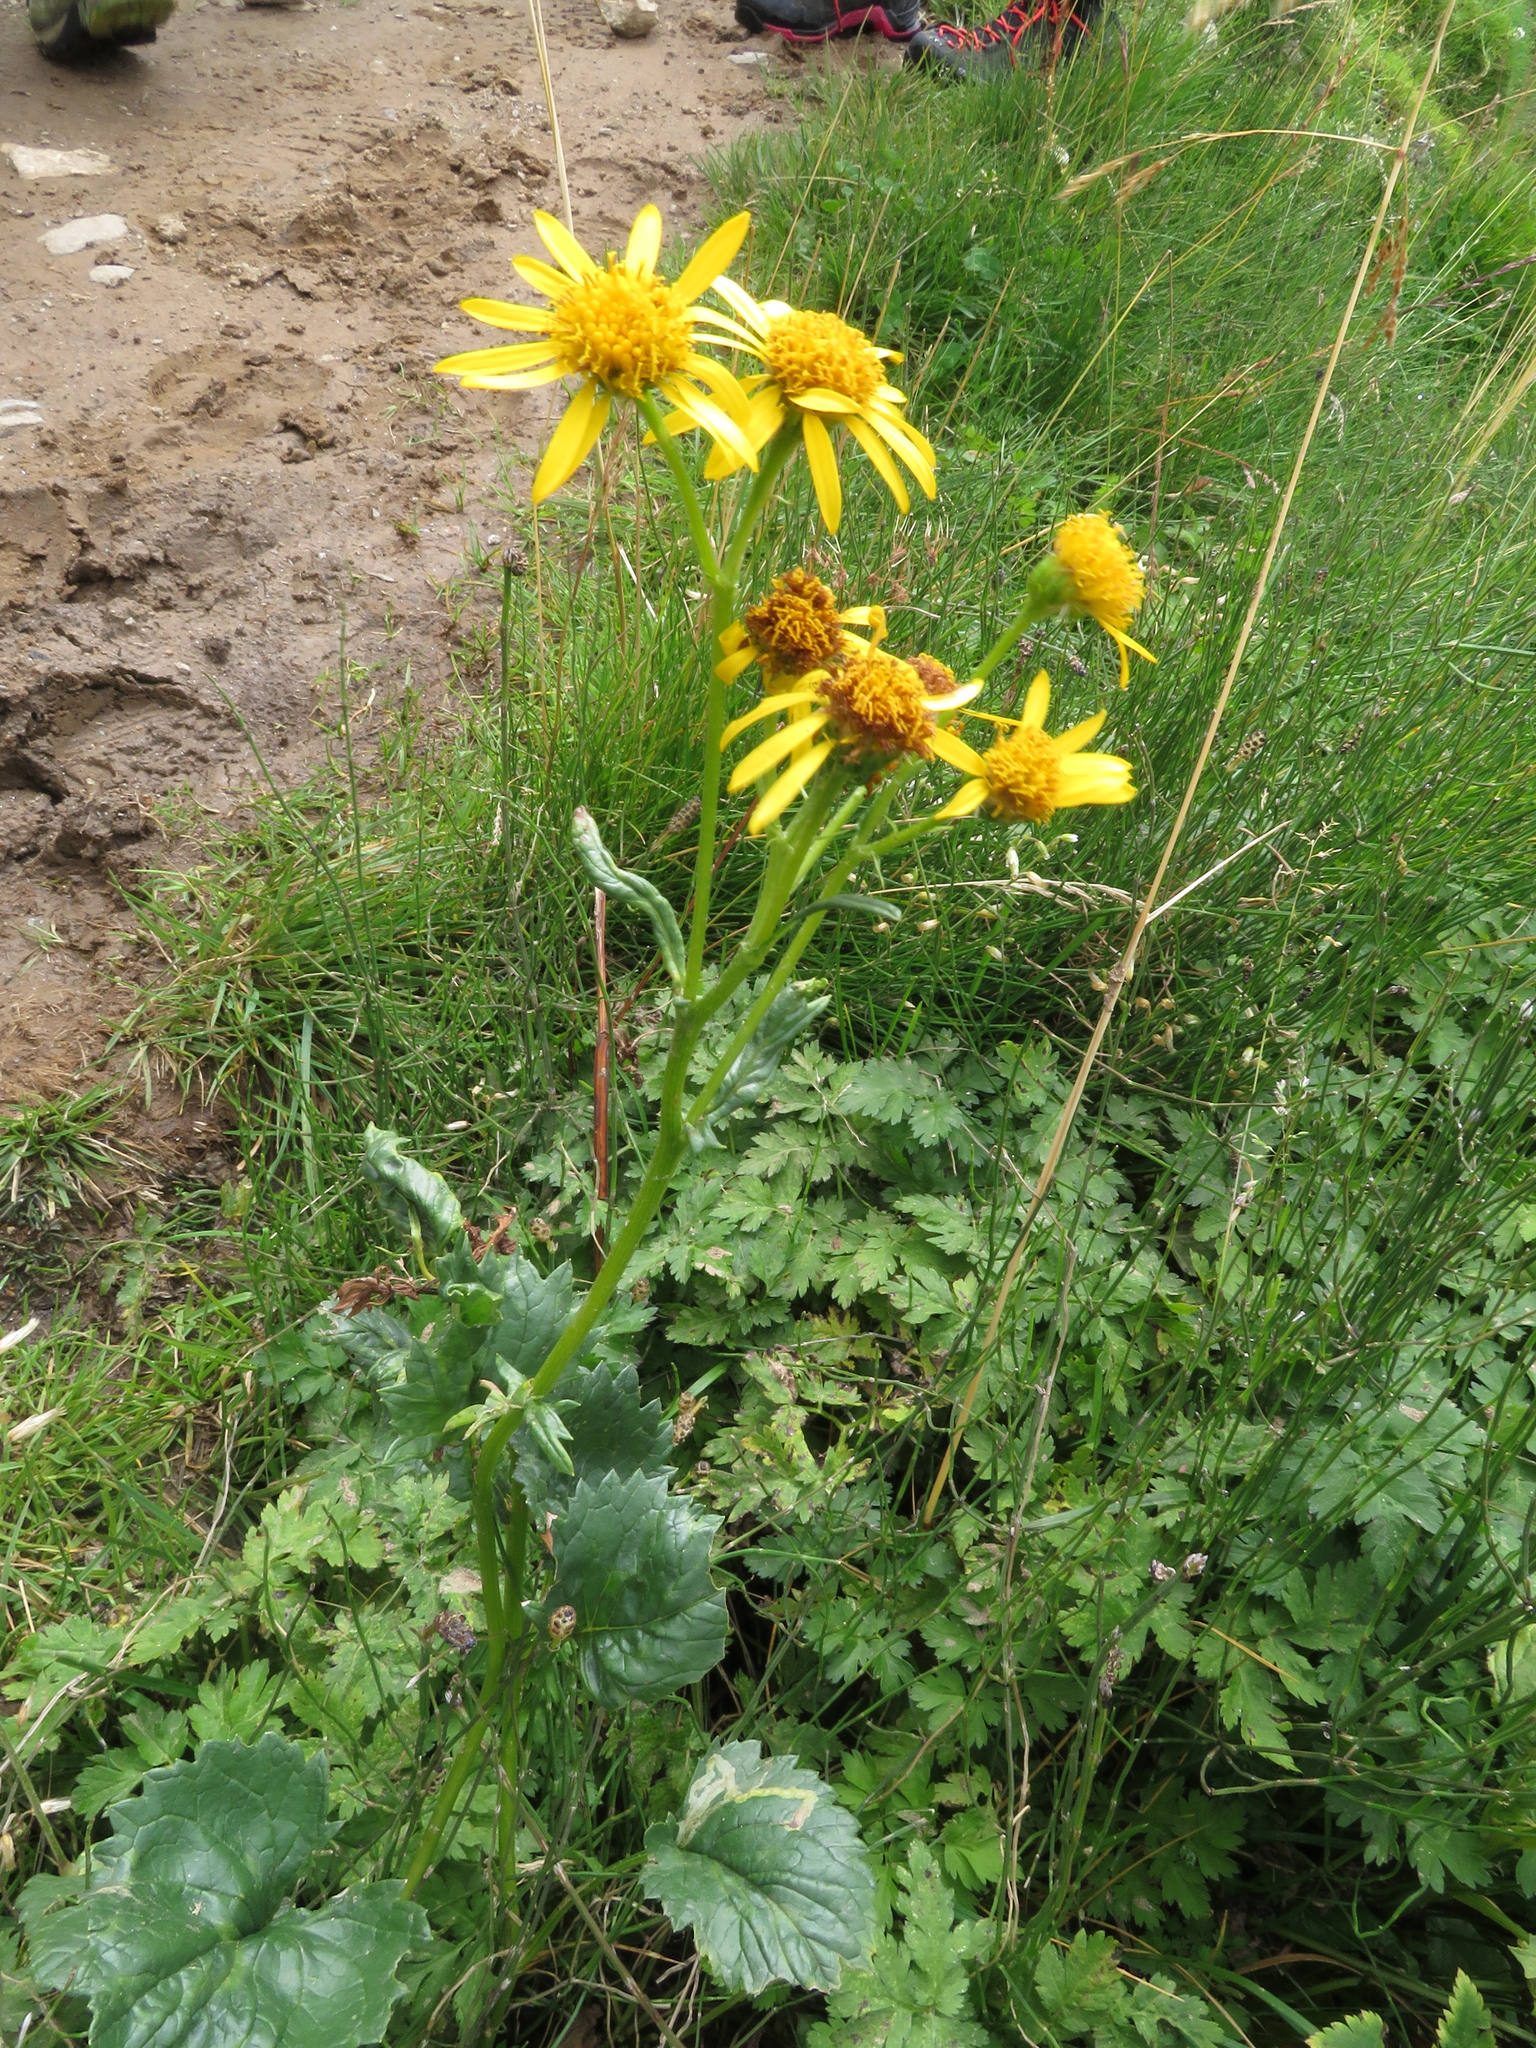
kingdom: Plantae
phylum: Tracheophyta
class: Magnoliopsida
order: Asterales
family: Asteraceae
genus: Jacobaea
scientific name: Jacobaea subalpina
